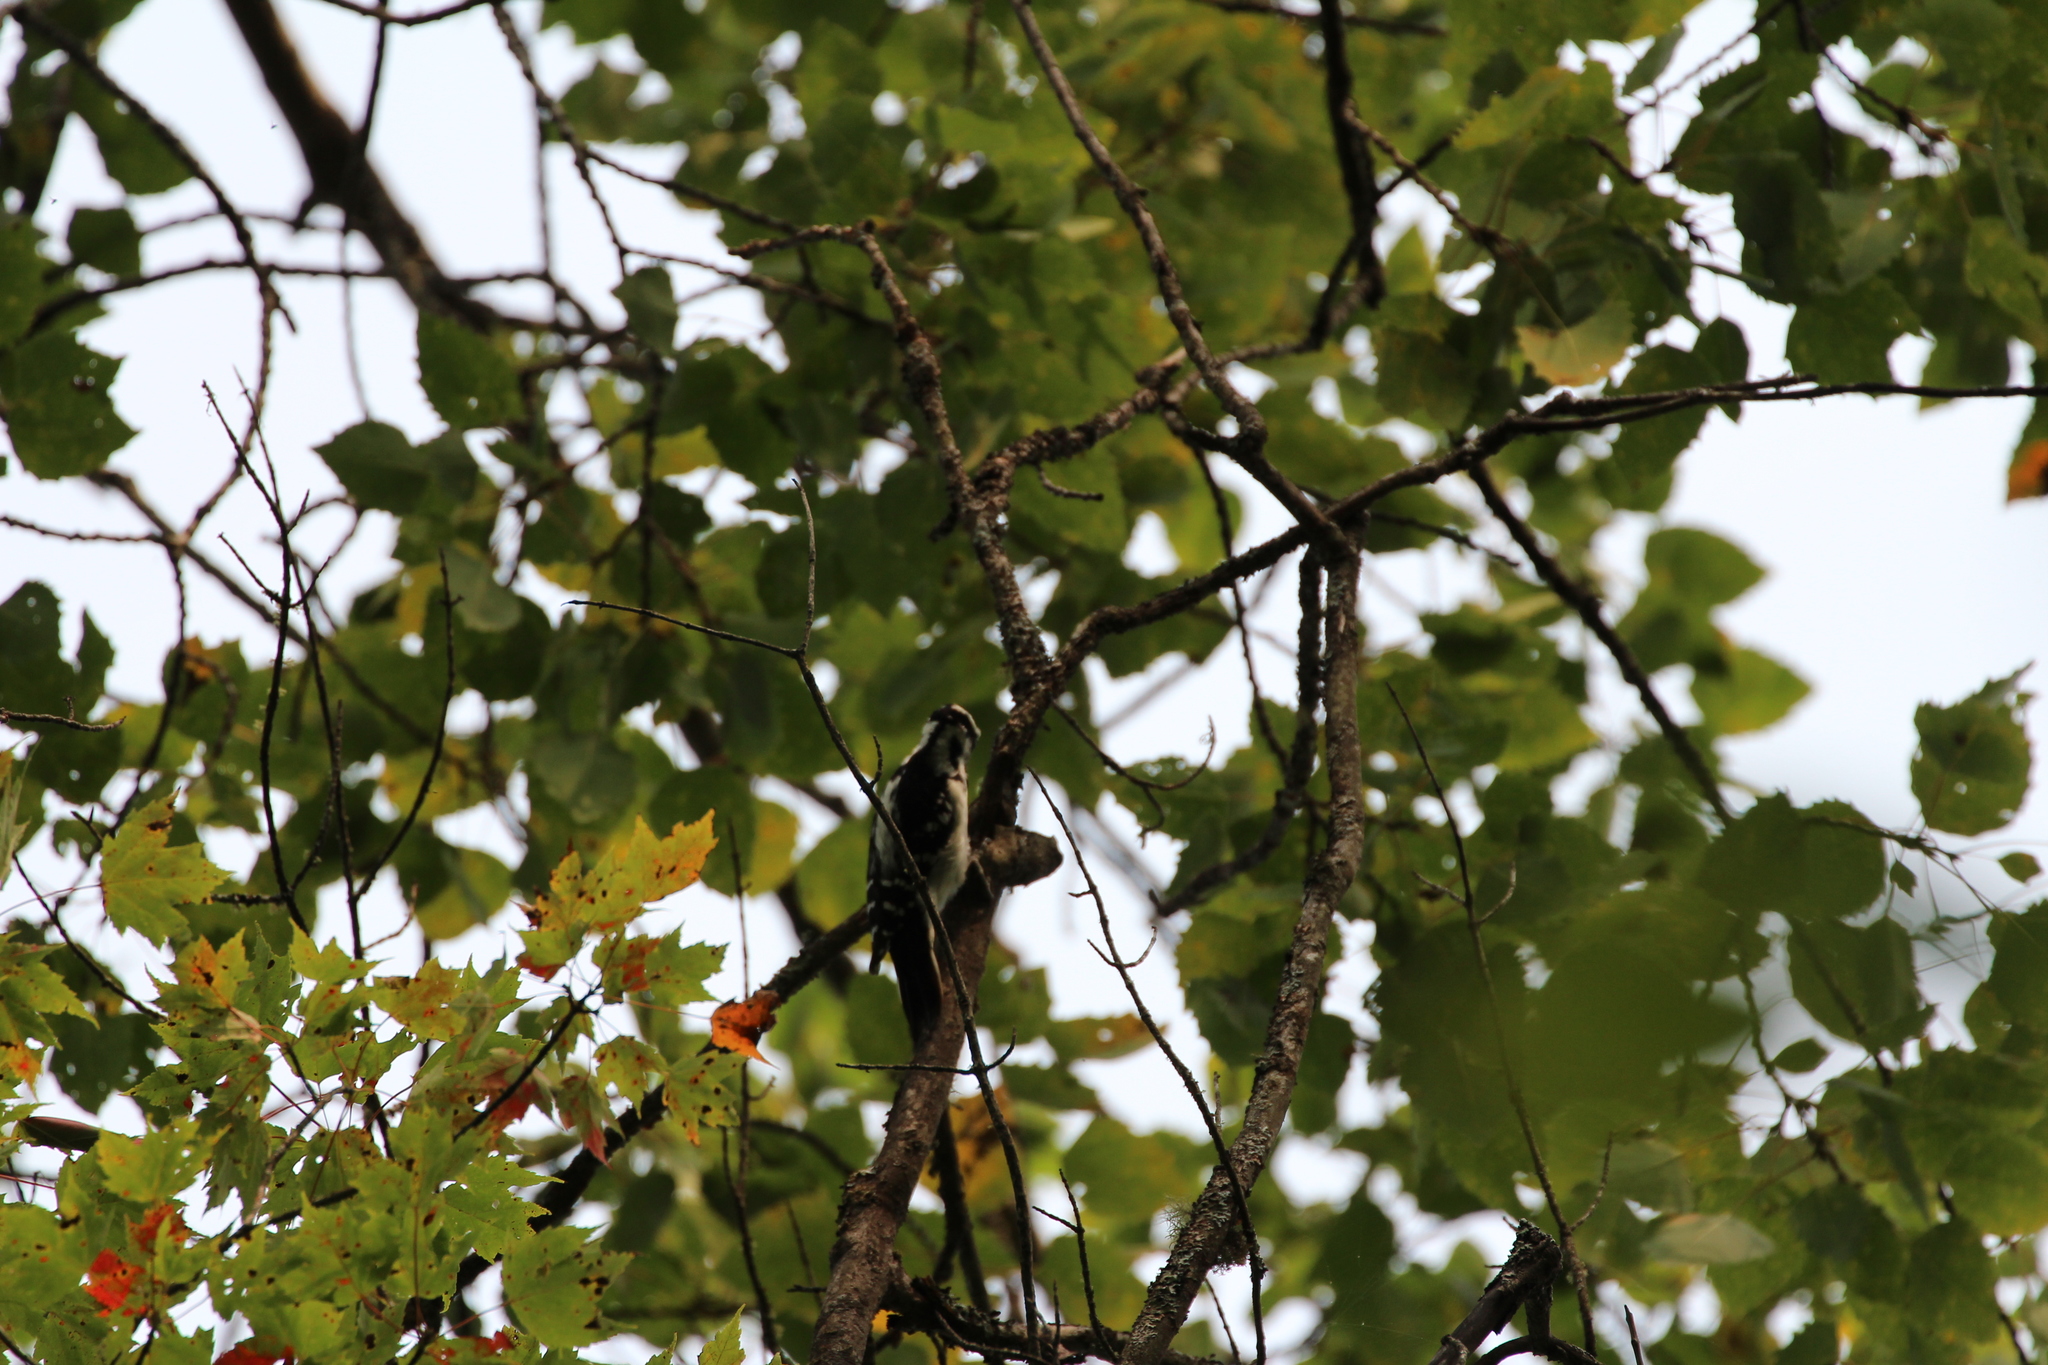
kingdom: Animalia
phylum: Chordata
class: Aves
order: Piciformes
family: Picidae
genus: Leuconotopicus
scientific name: Leuconotopicus villosus
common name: Hairy woodpecker
